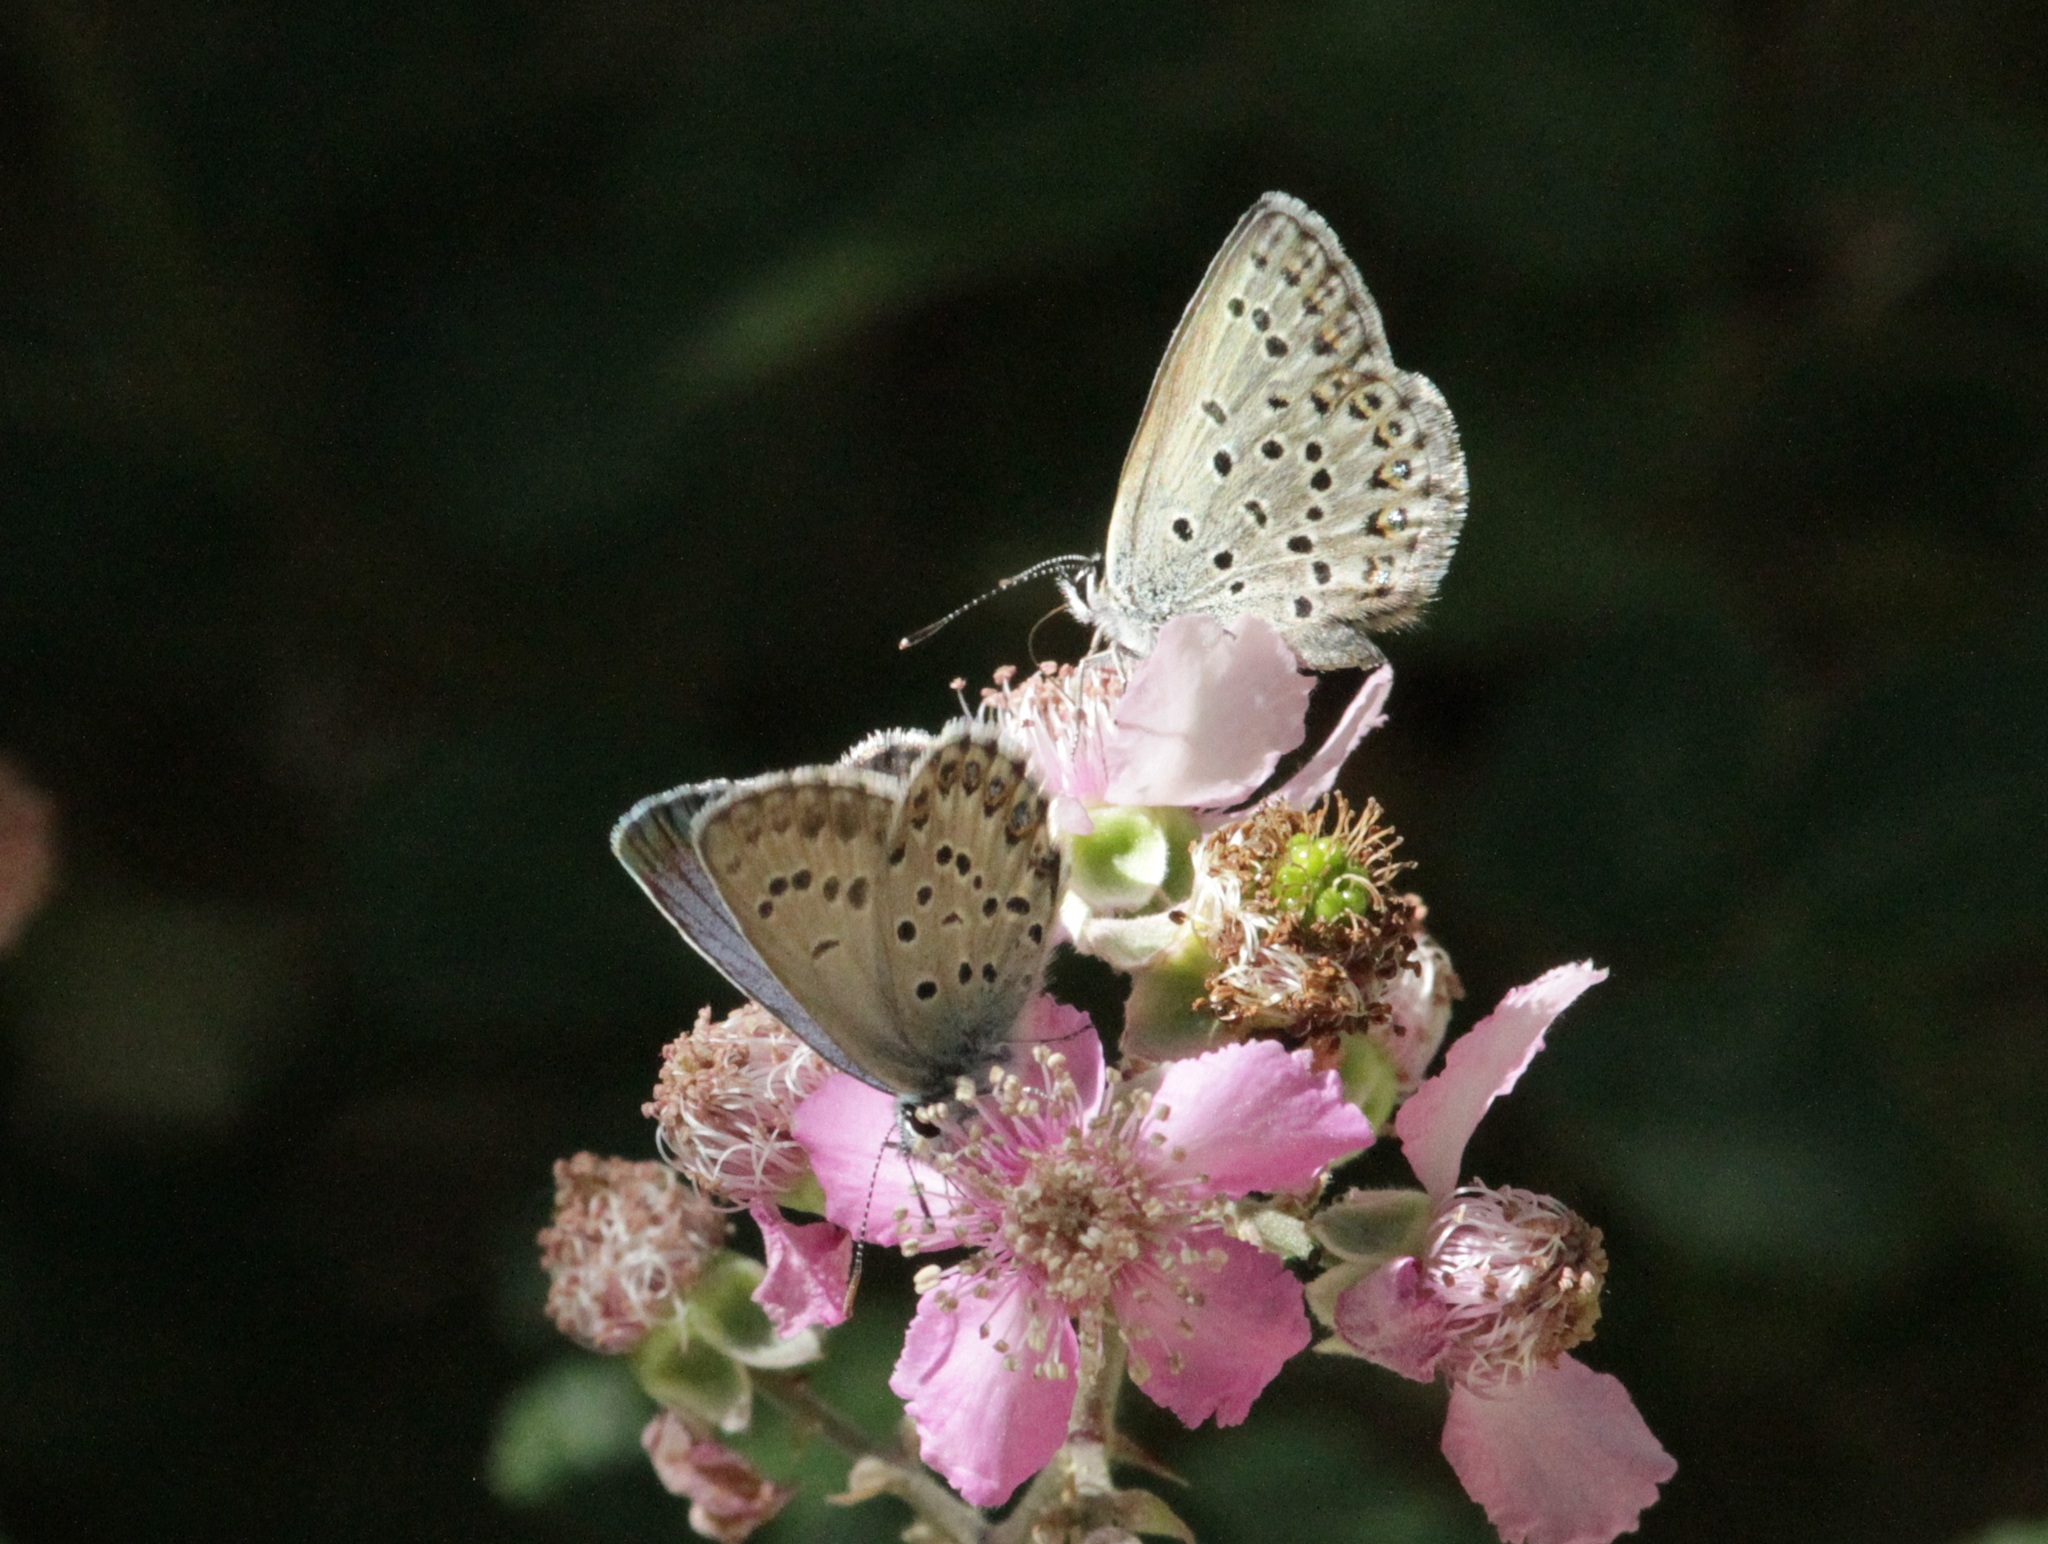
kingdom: Animalia
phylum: Arthropoda
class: Insecta
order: Lepidoptera
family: Lycaenidae
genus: Lycaeides
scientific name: Lycaeides idas
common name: Northern blue
